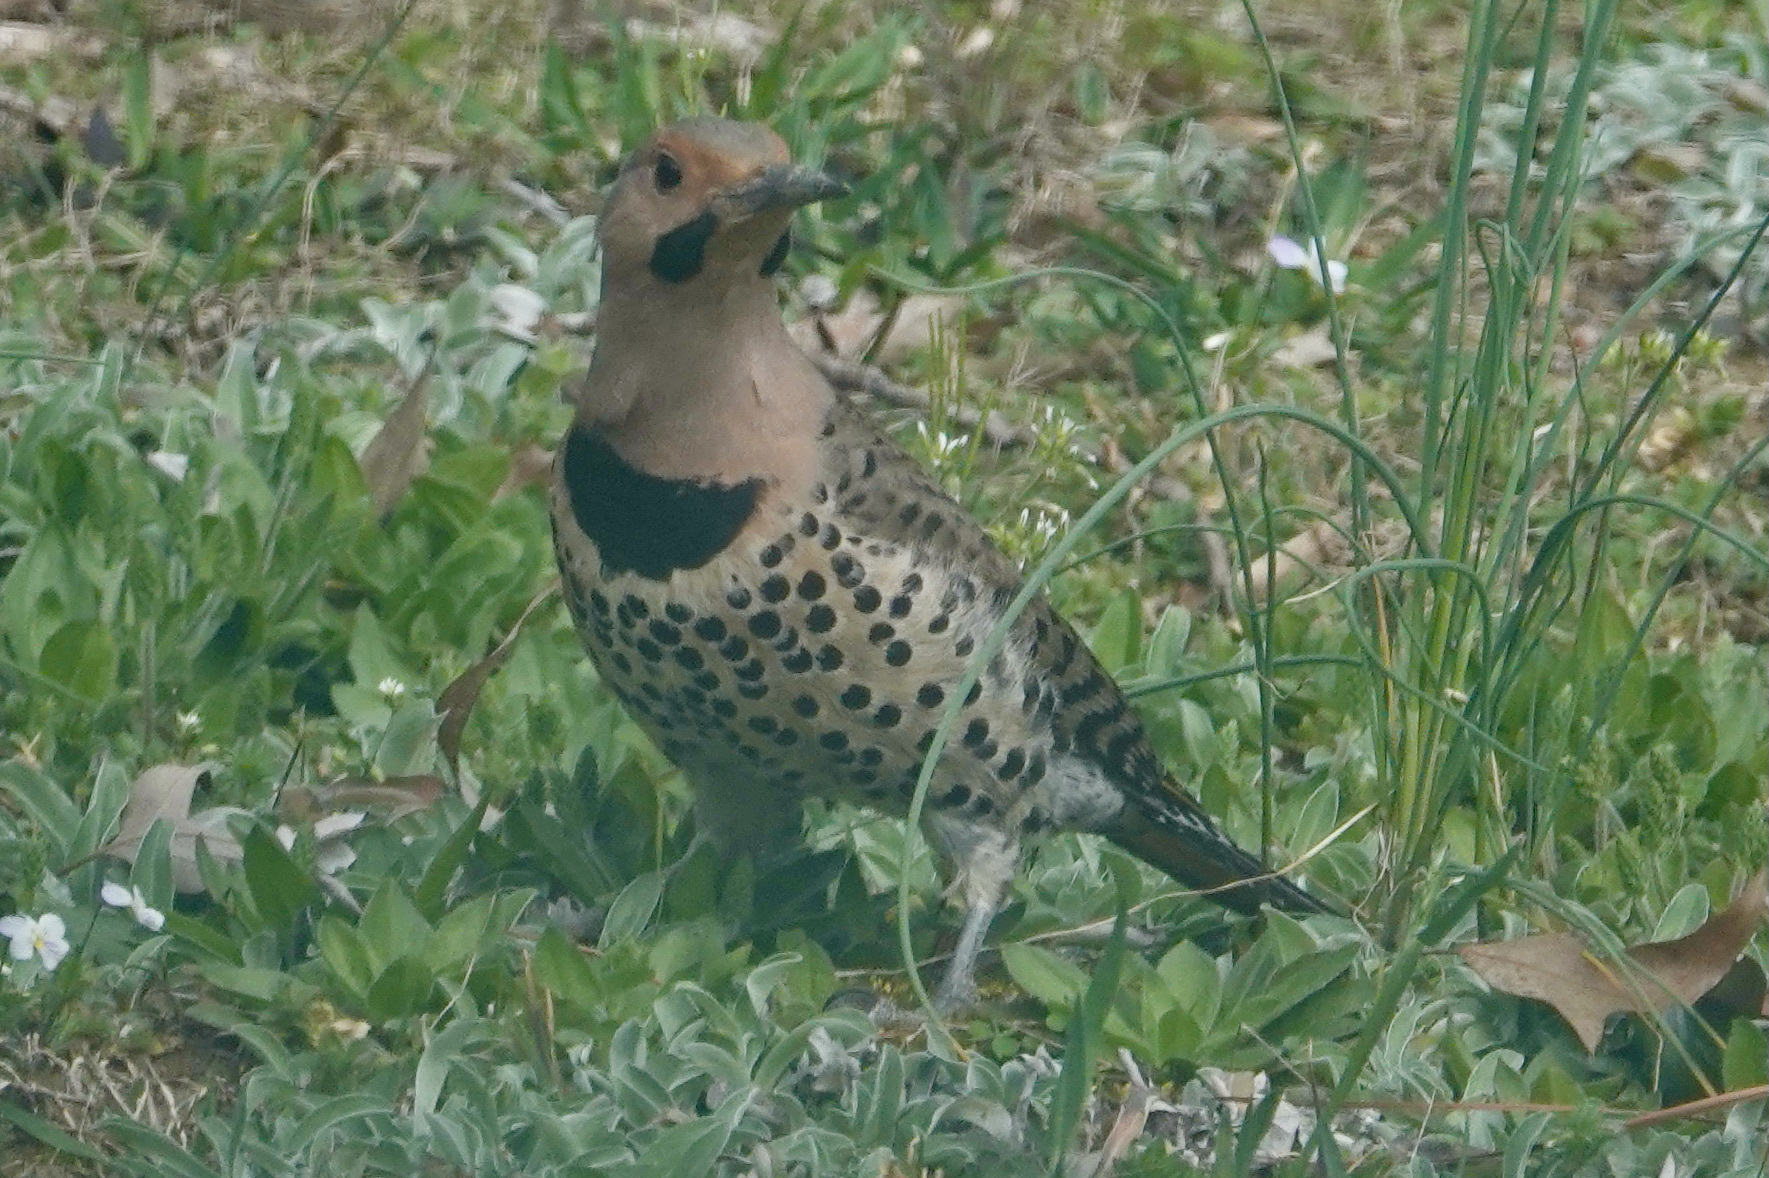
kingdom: Animalia
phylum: Chordata
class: Aves
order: Piciformes
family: Picidae
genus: Colaptes
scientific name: Colaptes auratus
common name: Northern flicker
